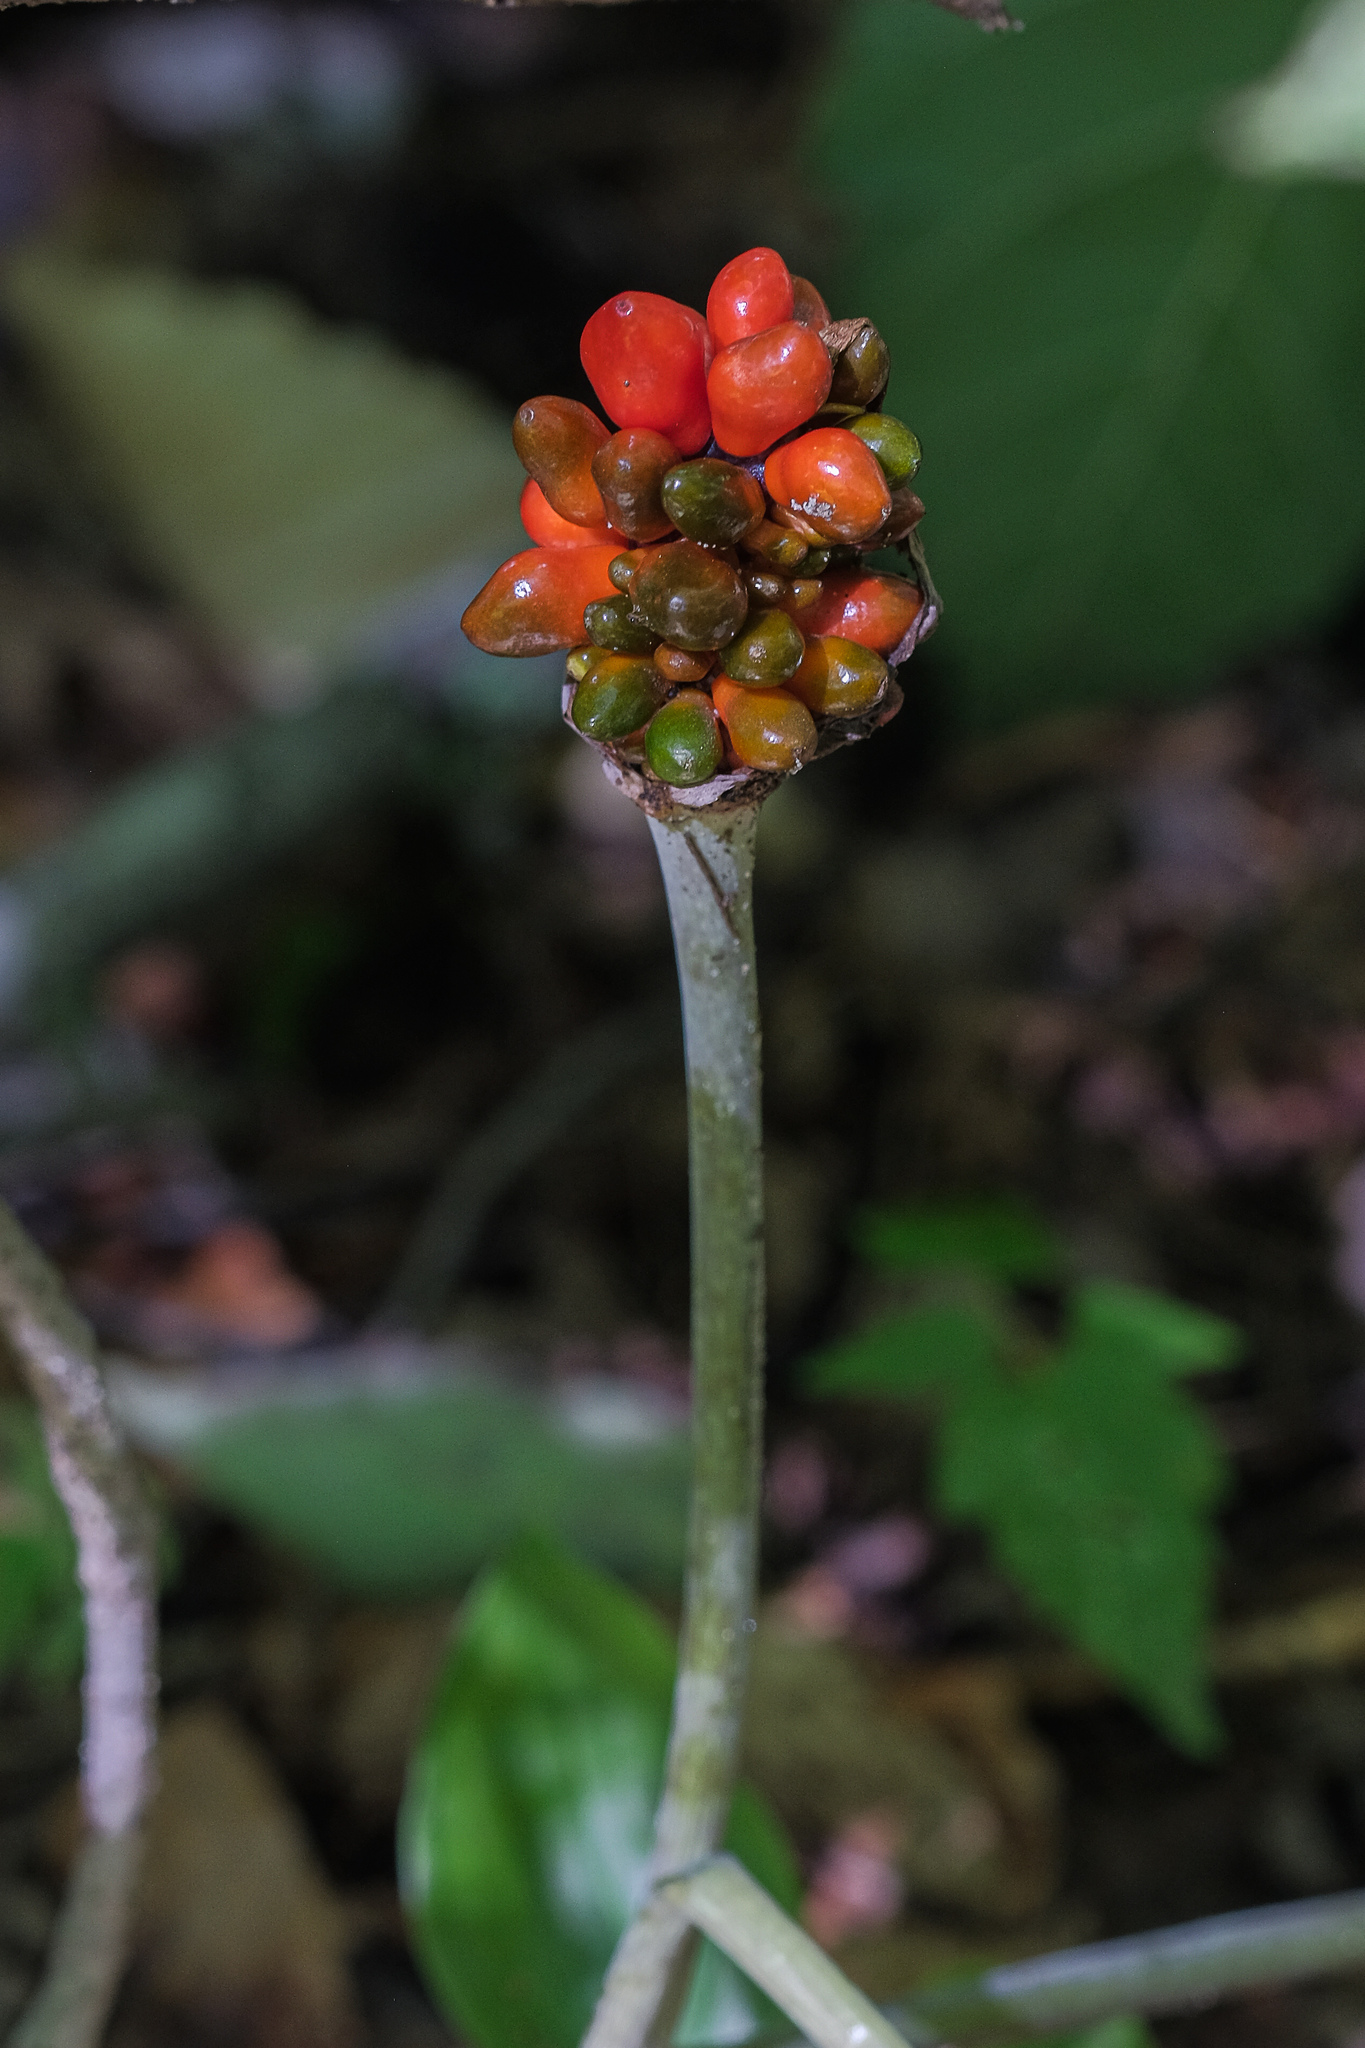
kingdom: Plantae
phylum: Tracheophyta
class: Liliopsida
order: Alismatales
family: Araceae
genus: Arisaema
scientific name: Arisaema triphyllum
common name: Jack-in-the-pulpit
